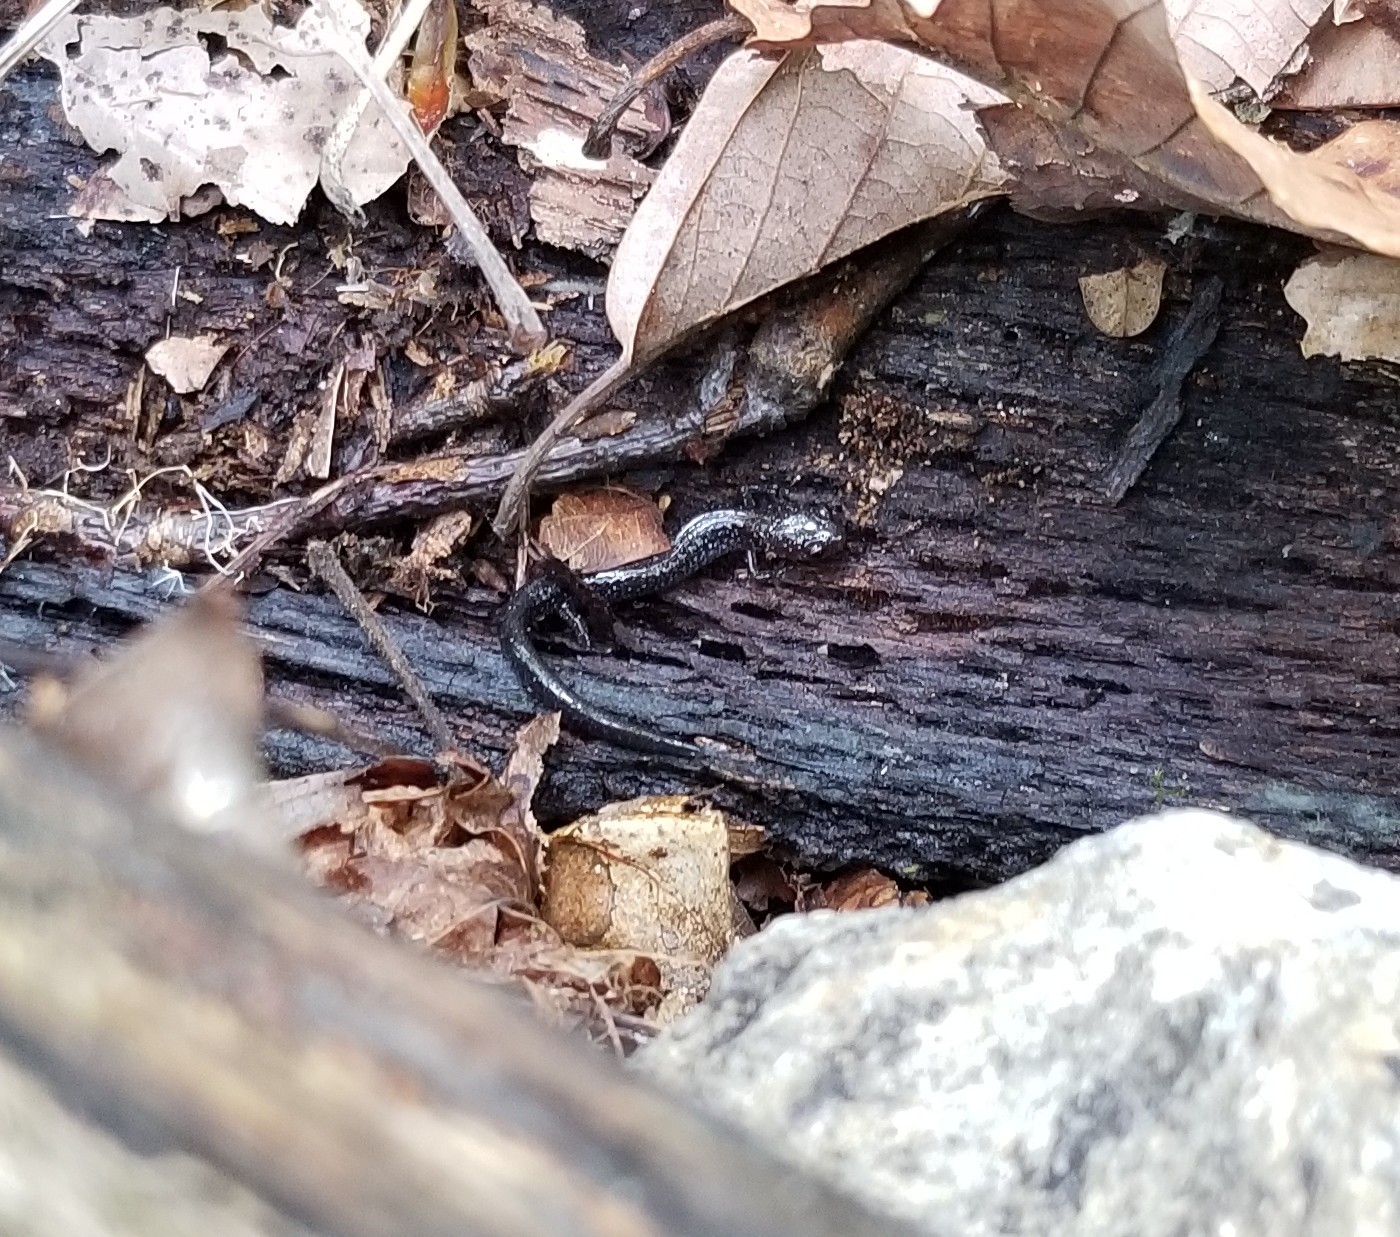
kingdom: Animalia
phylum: Chordata
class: Amphibia
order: Caudata
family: Plethodontidae
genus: Plethodon
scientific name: Plethodon cinereus
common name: Redback salamander
